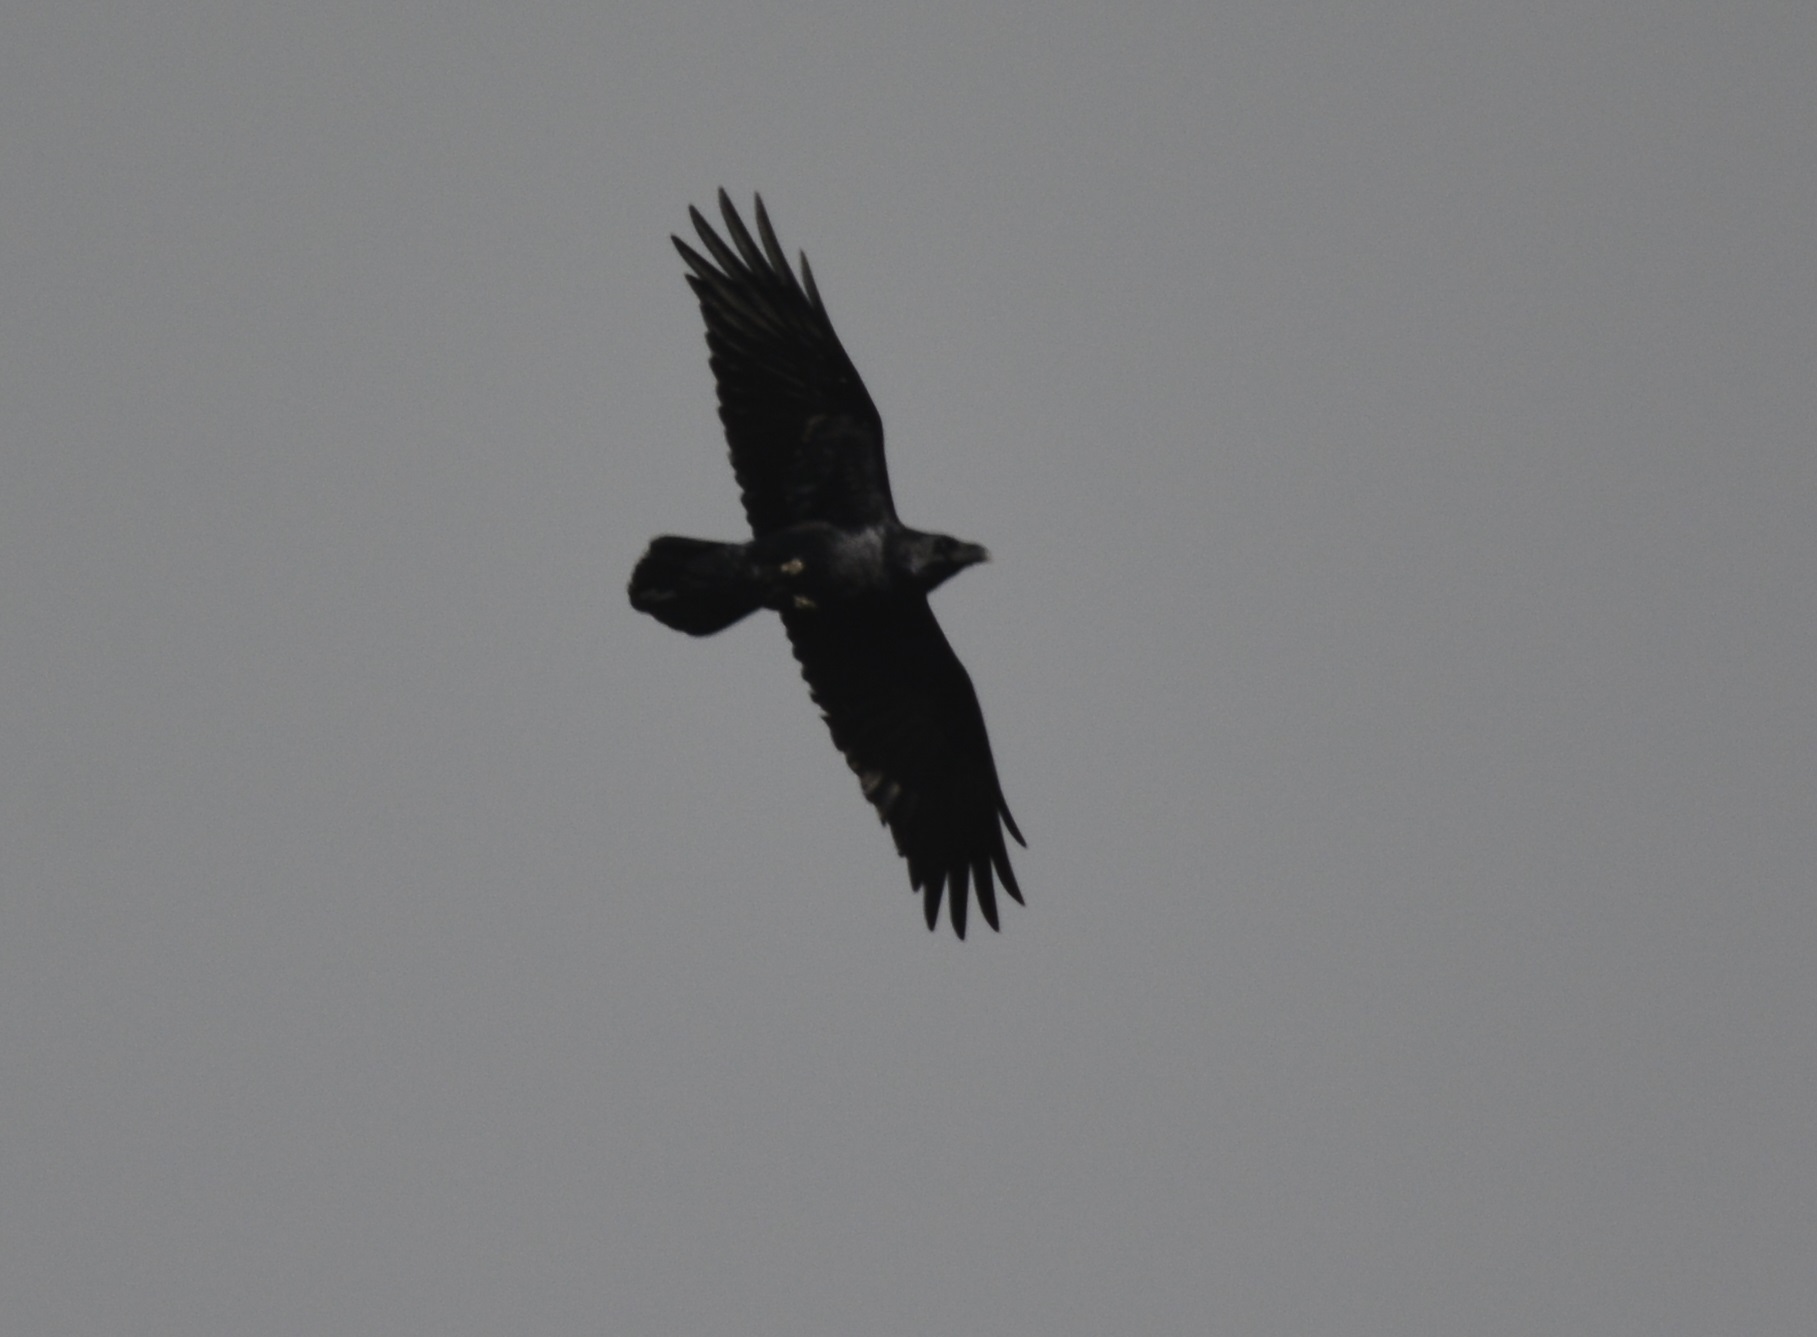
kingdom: Animalia
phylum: Chordata
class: Aves
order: Passeriformes
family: Corvidae
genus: Corvus
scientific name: Corvus corax
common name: Common raven
